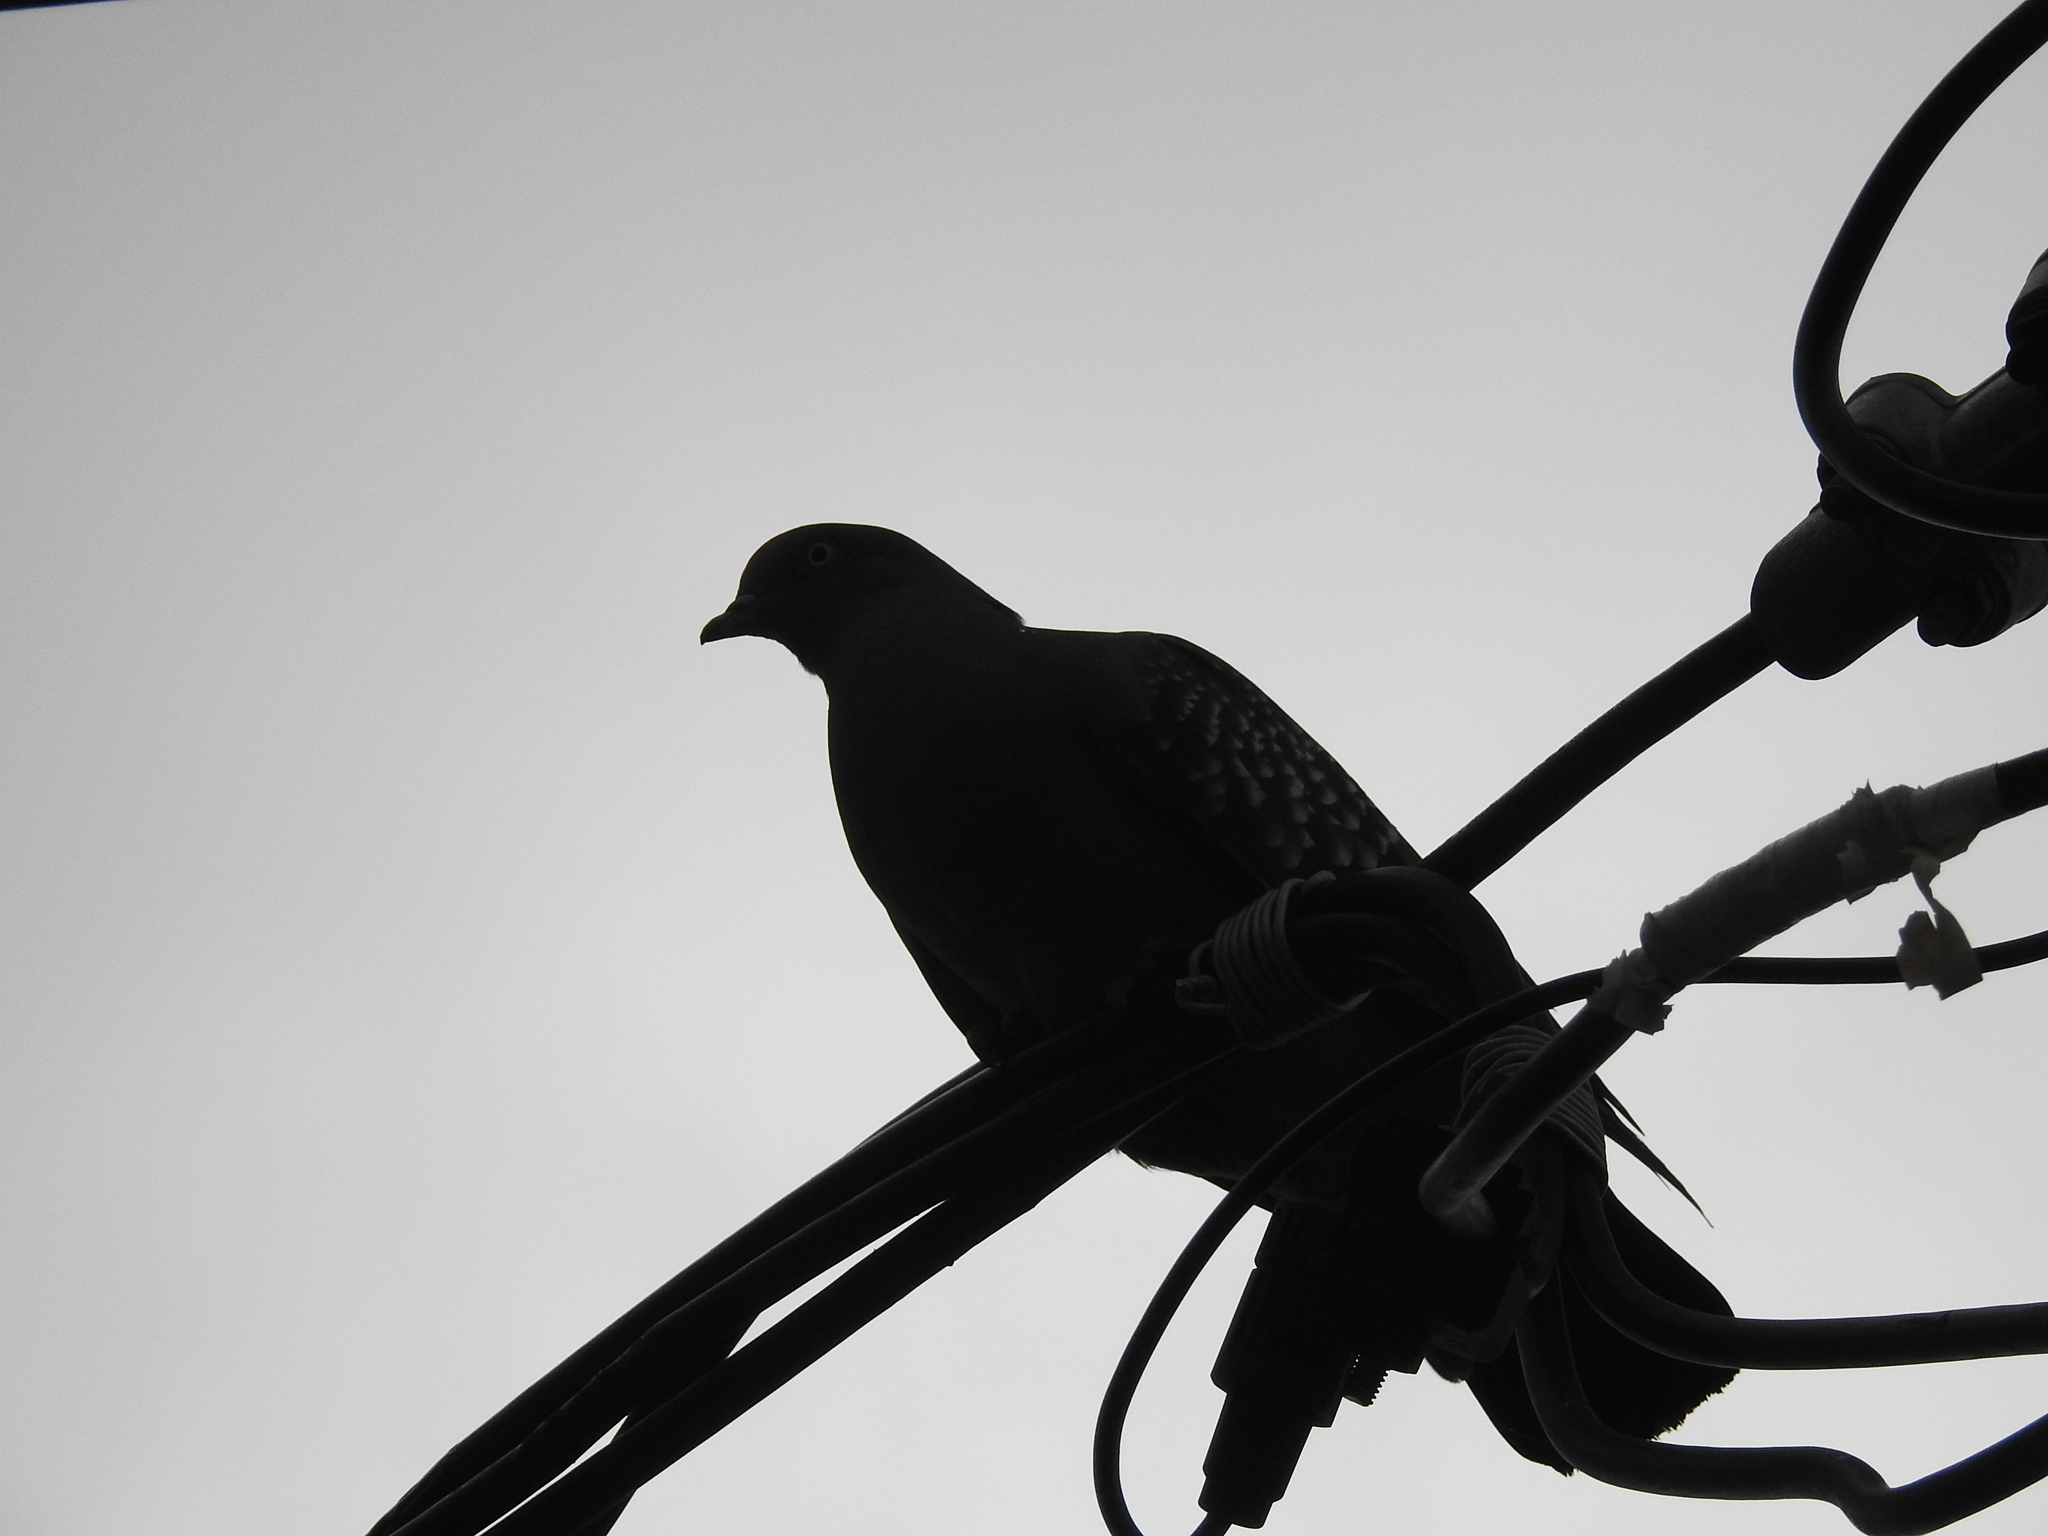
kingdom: Animalia
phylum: Chordata
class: Aves
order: Columbiformes
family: Columbidae
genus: Patagioenas
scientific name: Patagioenas maculosa
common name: Spot-winged pigeon
